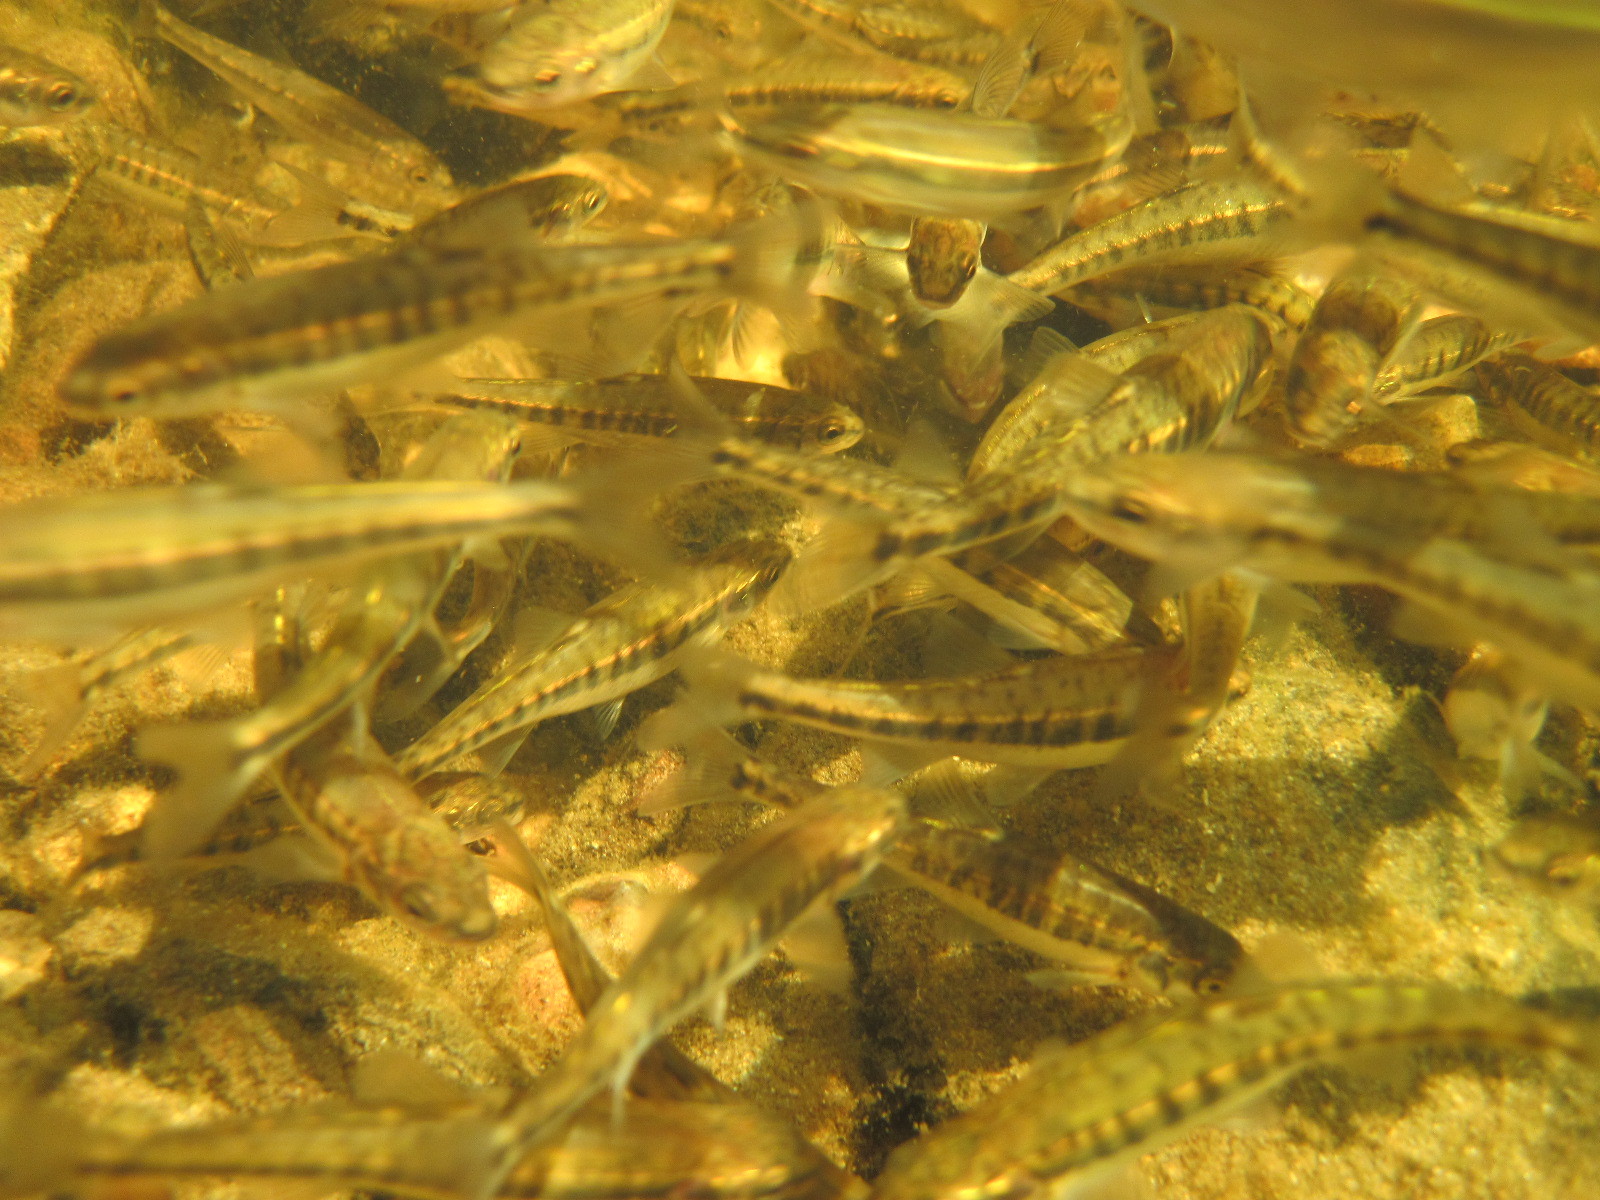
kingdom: Animalia
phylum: Chordata
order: Cypriniformes
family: Cyprinidae
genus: Phoxinus
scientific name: Phoxinus phoxinus
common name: Minnow
